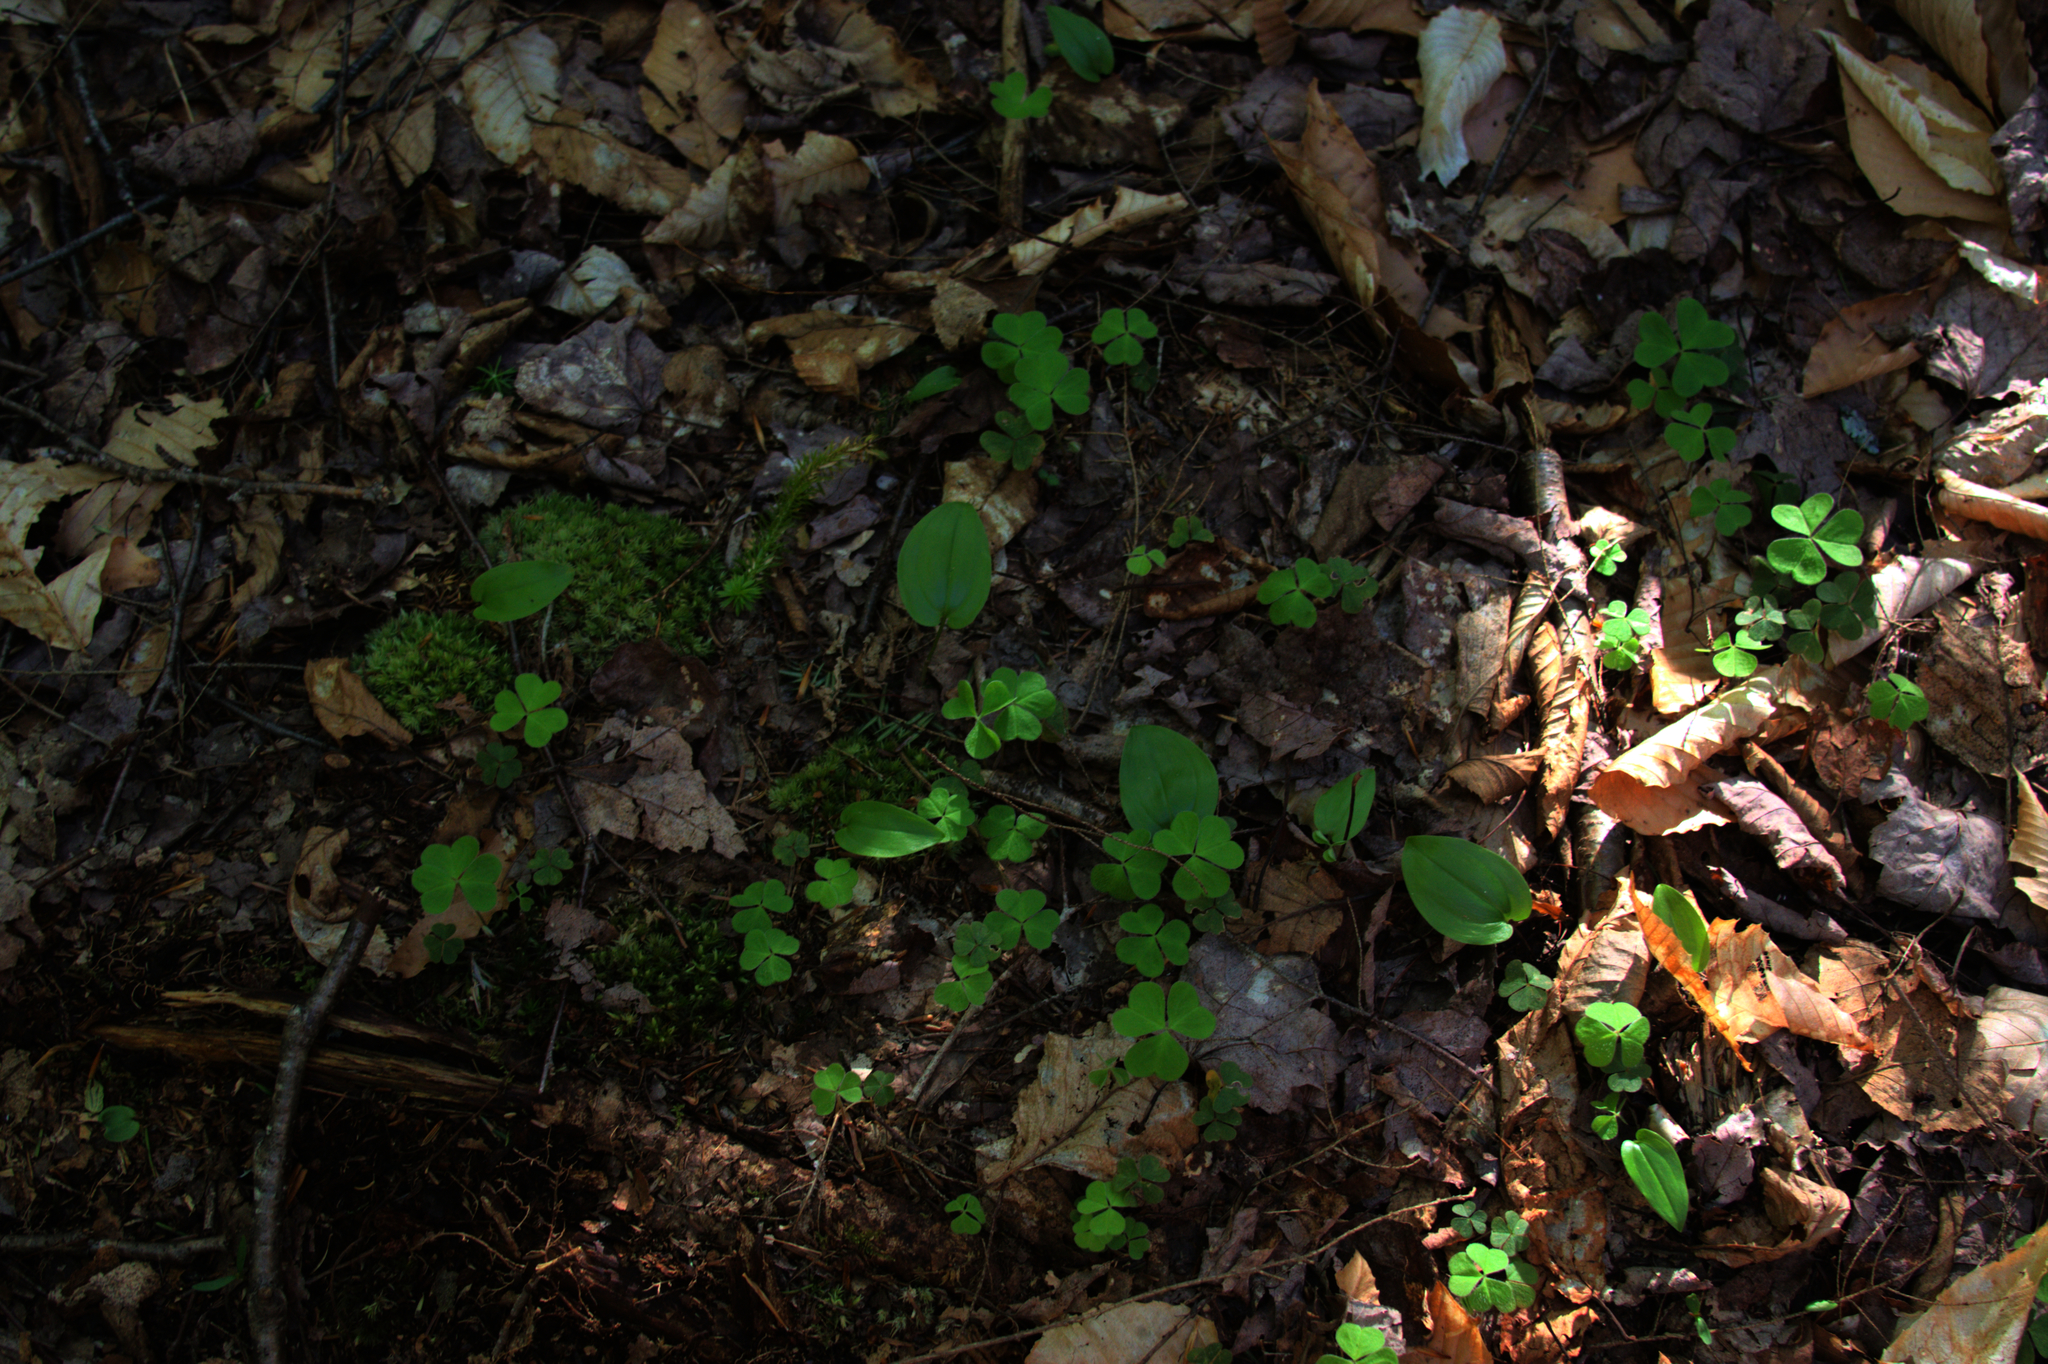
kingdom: Plantae
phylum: Tracheophyta
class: Liliopsida
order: Asparagales
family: Asparagaceae
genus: Maianthemum
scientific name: Maianthemum canadense
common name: False lily-of-the-valley
